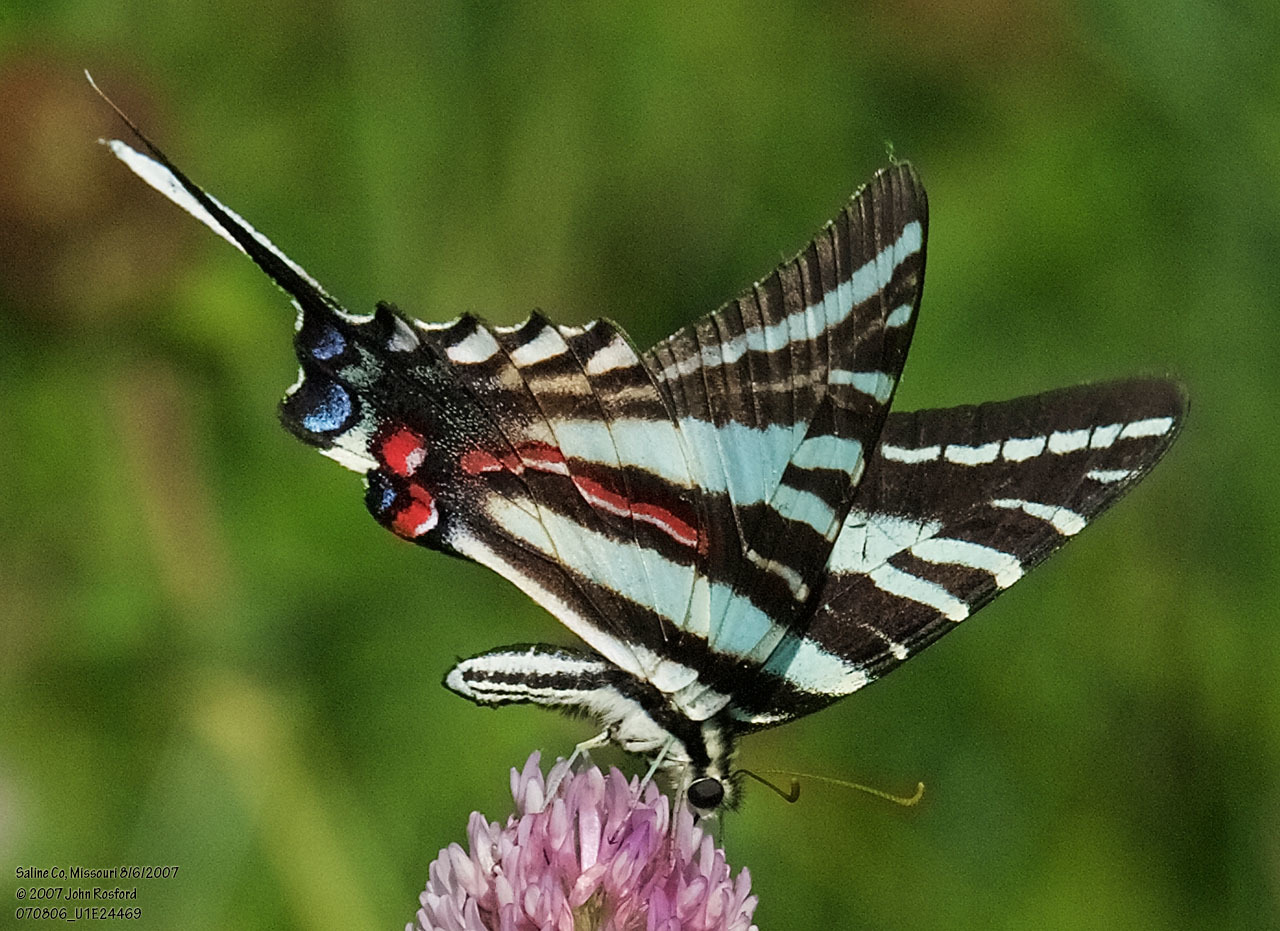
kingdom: Animalia
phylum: Arthropoda
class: Insecta
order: Lepidoptera
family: Papilionidae
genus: Protographium
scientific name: Protographium marcellus
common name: Zebra swallowtail
